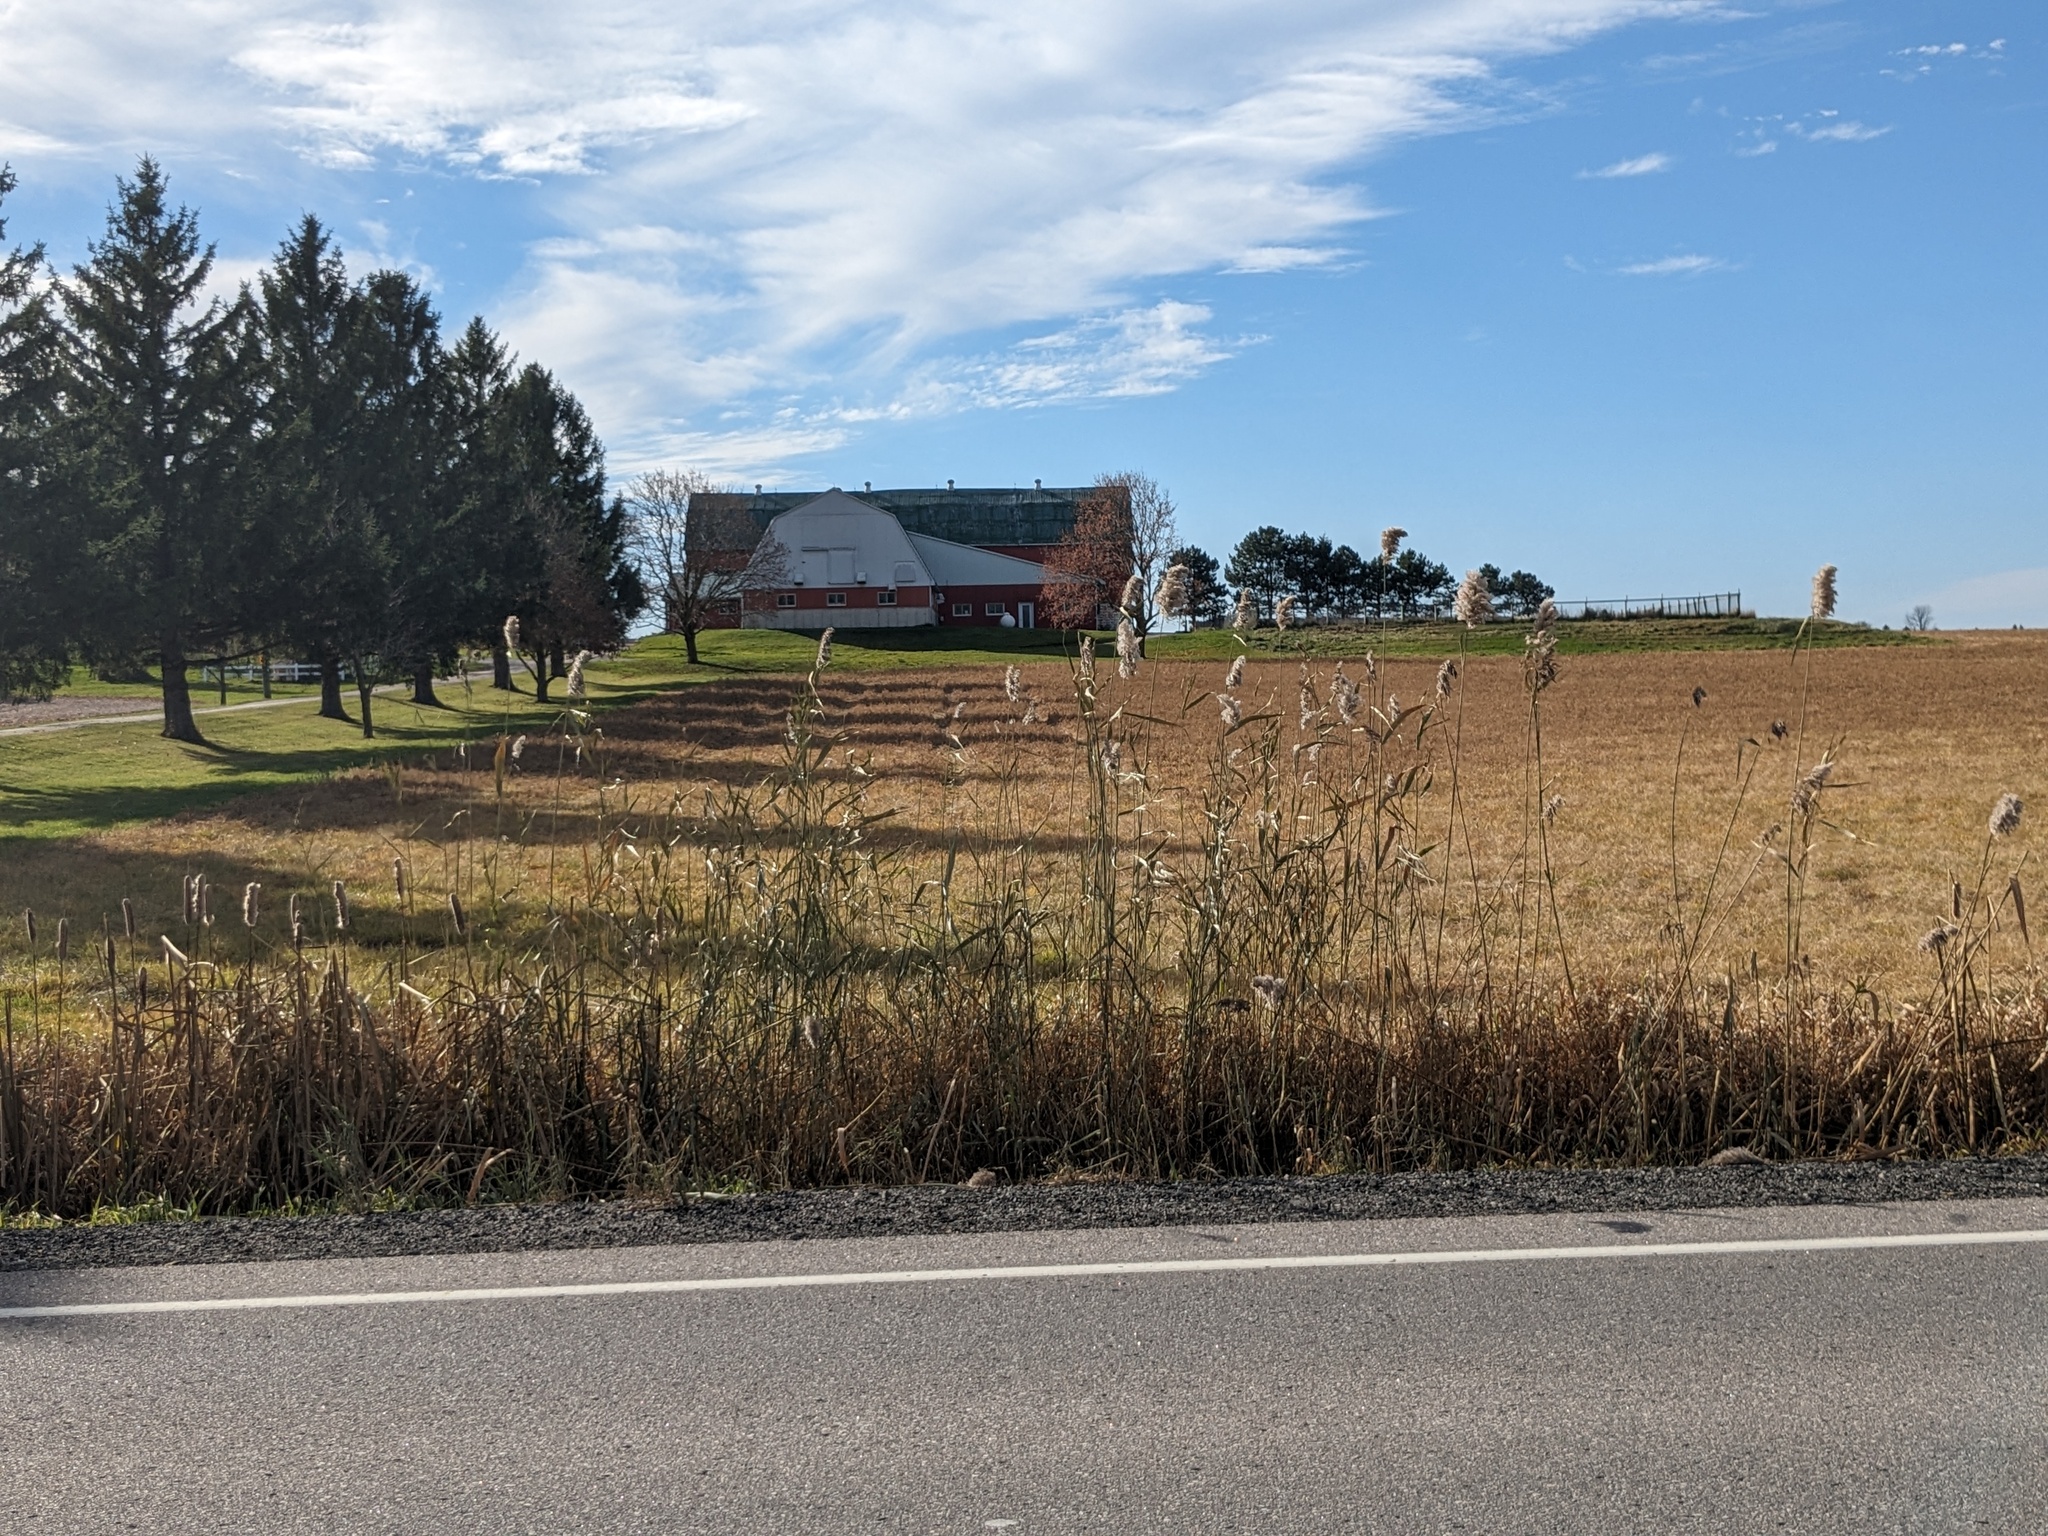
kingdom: Plantae
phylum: Tracheophyta
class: Liliopsida
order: Poales
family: Poaceae
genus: Phragmites
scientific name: Phragmites australis
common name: Common reed
